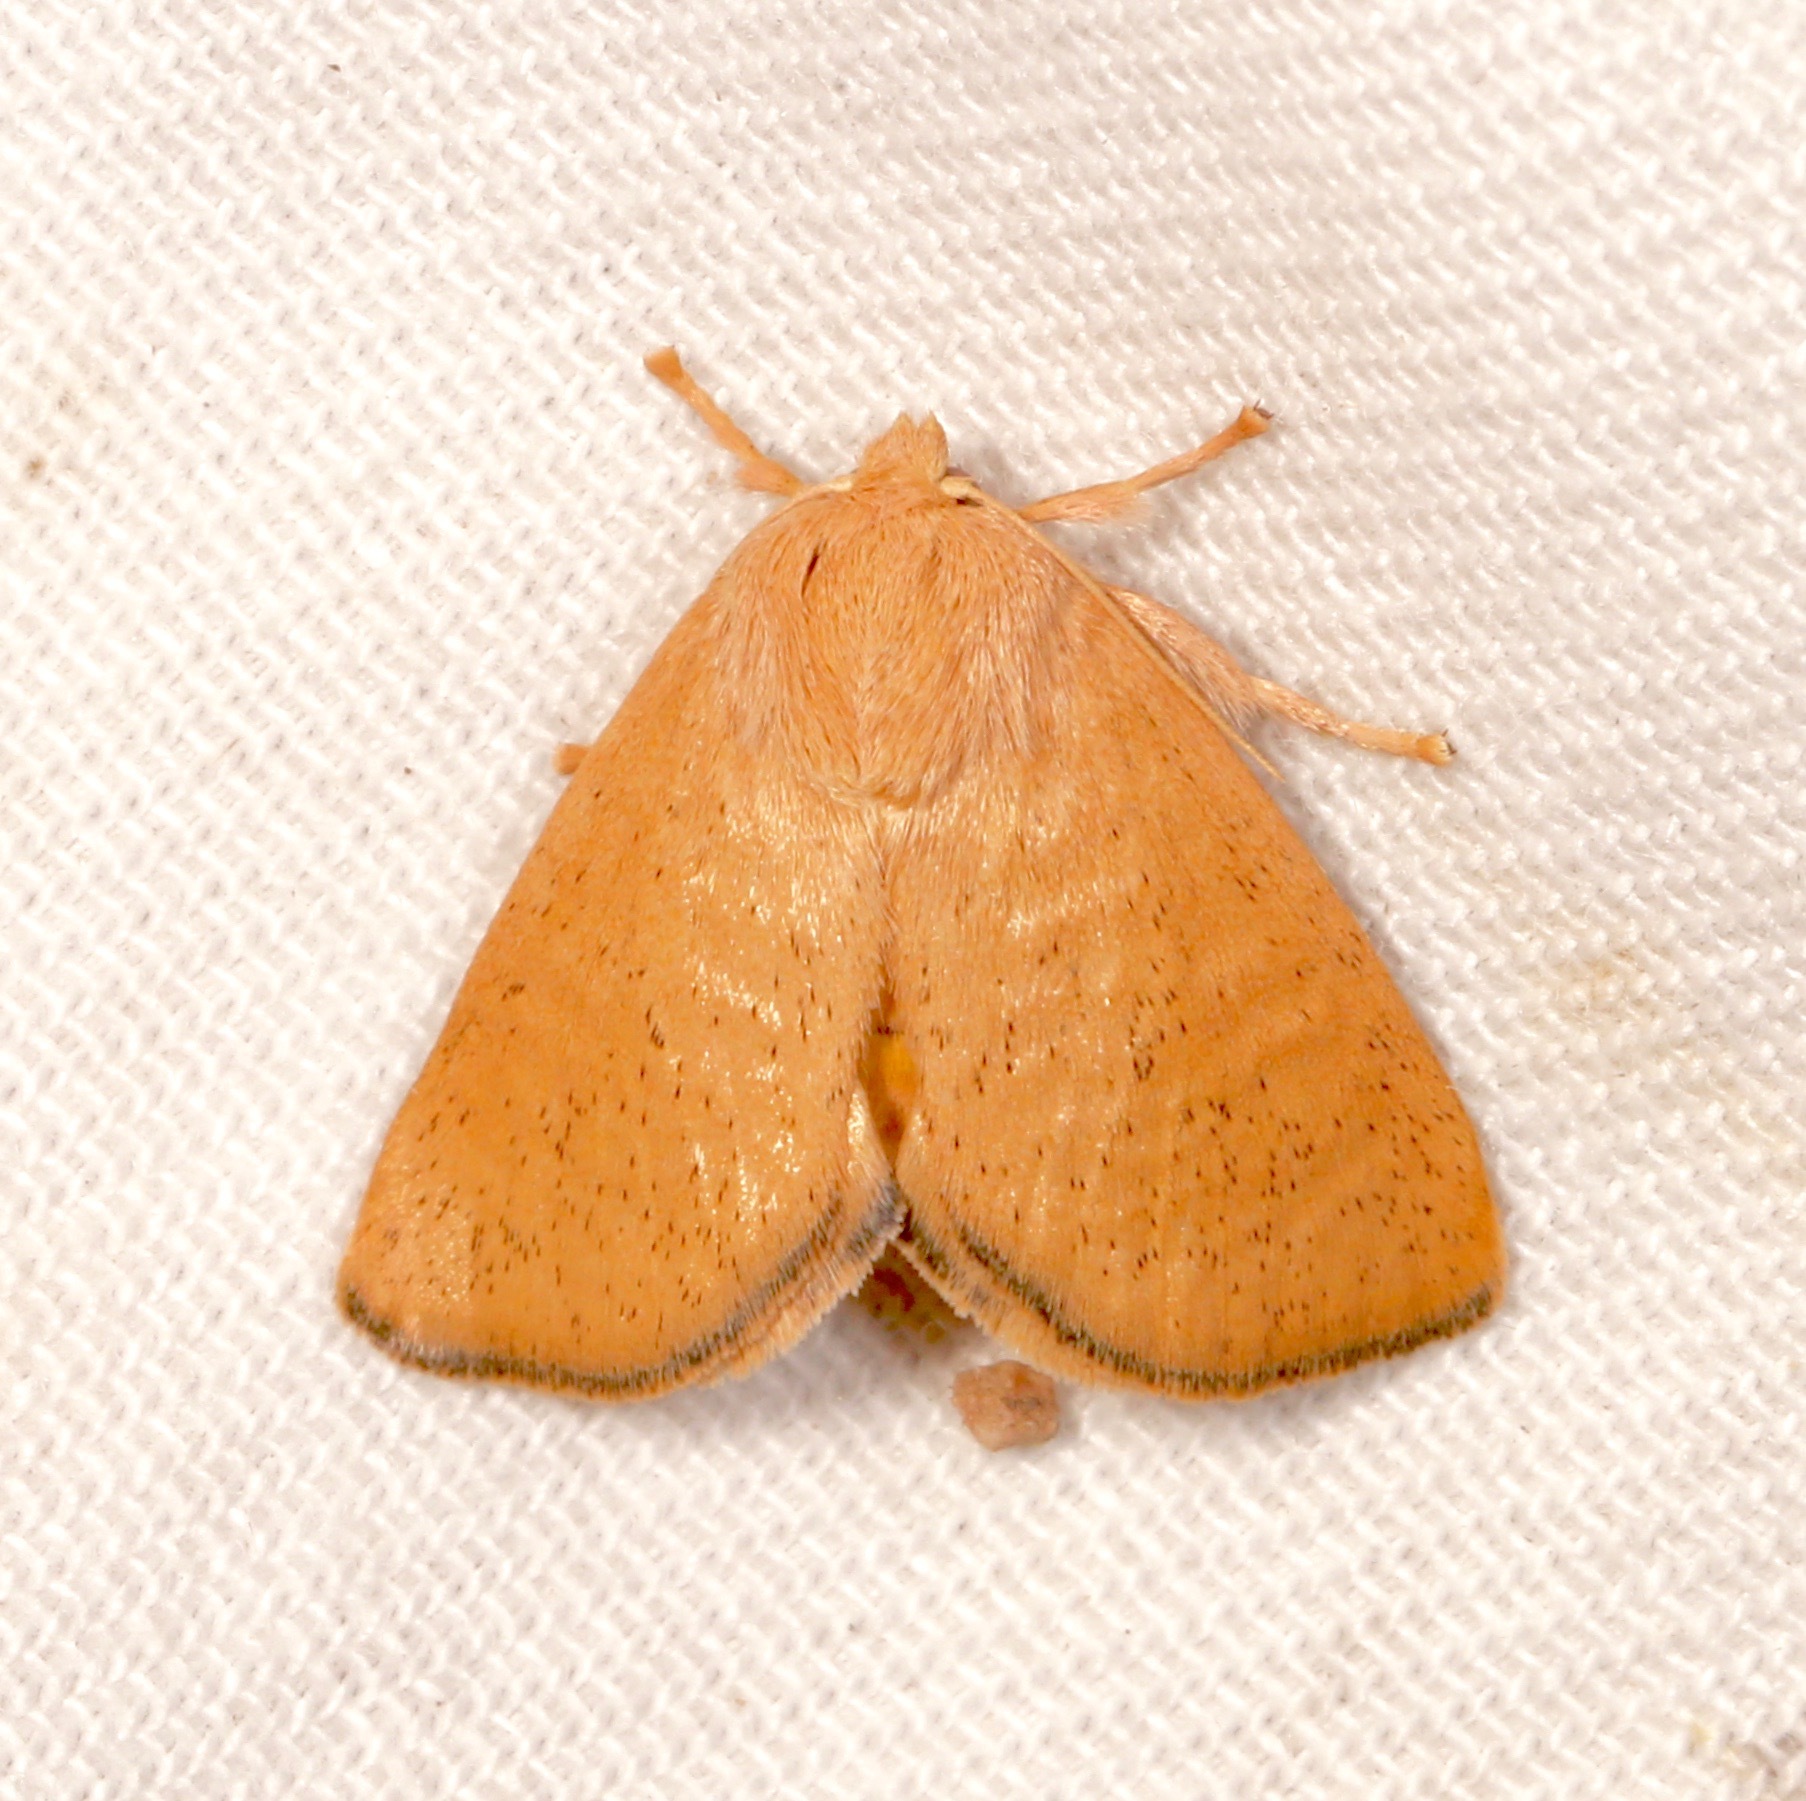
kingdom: Animalia
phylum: Arthropoda
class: Insecta
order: Lepidoptera
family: Limacodidae
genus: Isa
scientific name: Isa schaefferana
